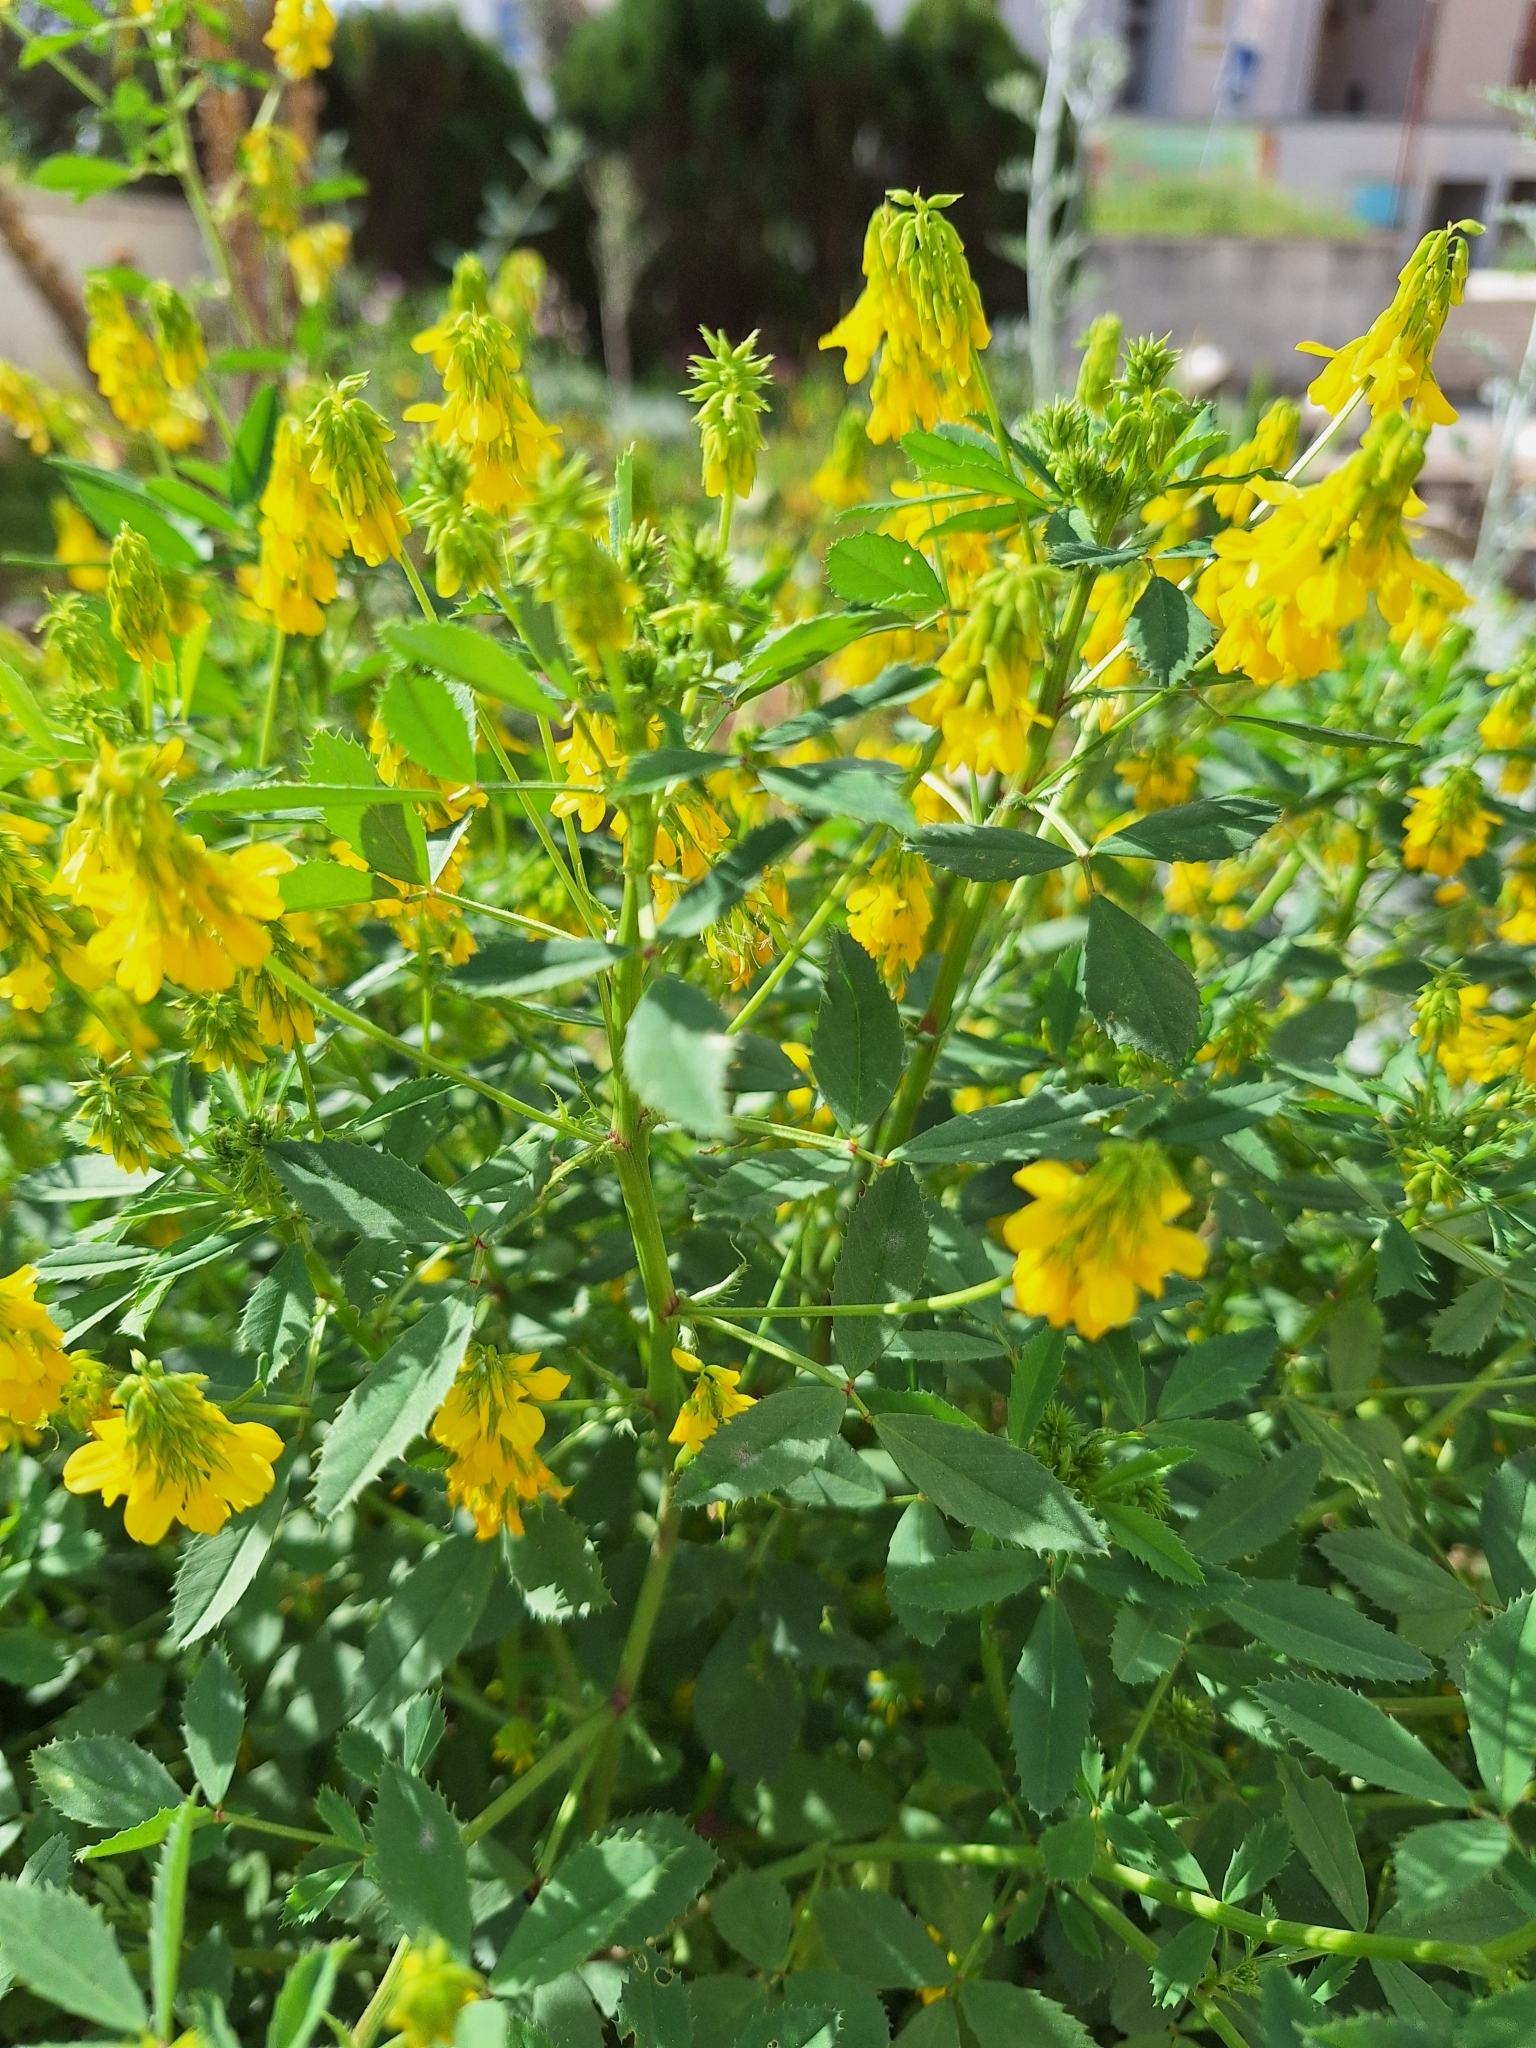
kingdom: Plantae
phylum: Tracheophyta
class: Magnoliopsida
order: Fabales
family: Fabaceae
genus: Trigonella
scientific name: Trigonella esculenta
